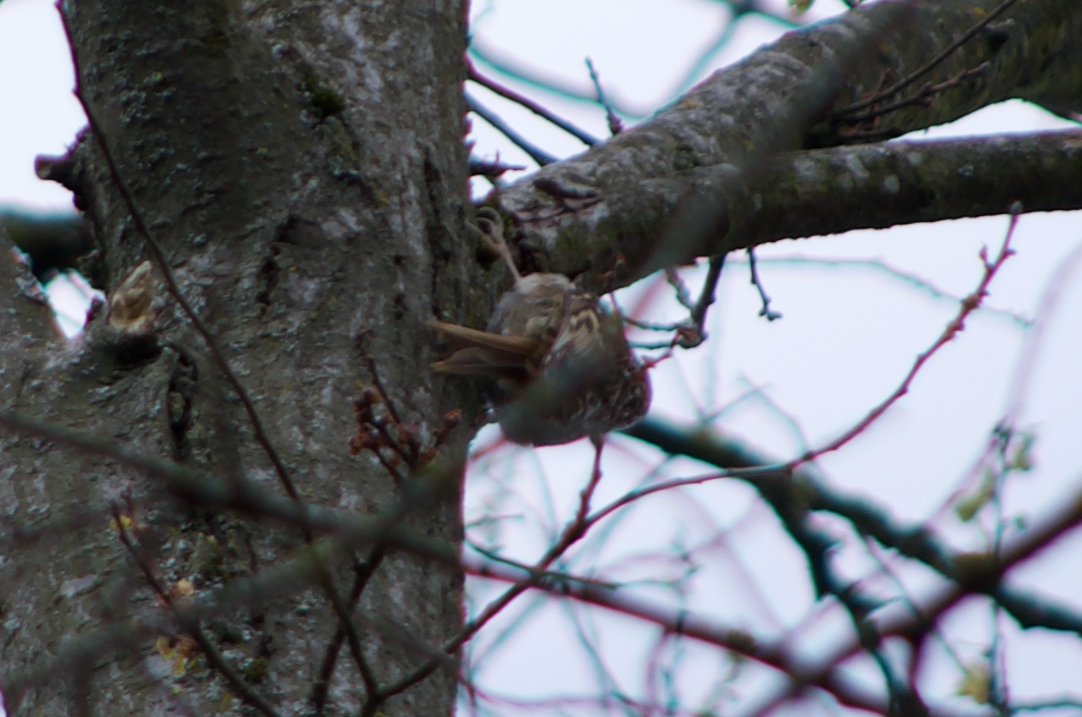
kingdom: Animalia
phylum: Chordata
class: Aves
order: Passeriformes
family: Certhiidae
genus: Certhia
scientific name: Certhia familiaris
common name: Eurasian treecreeper
